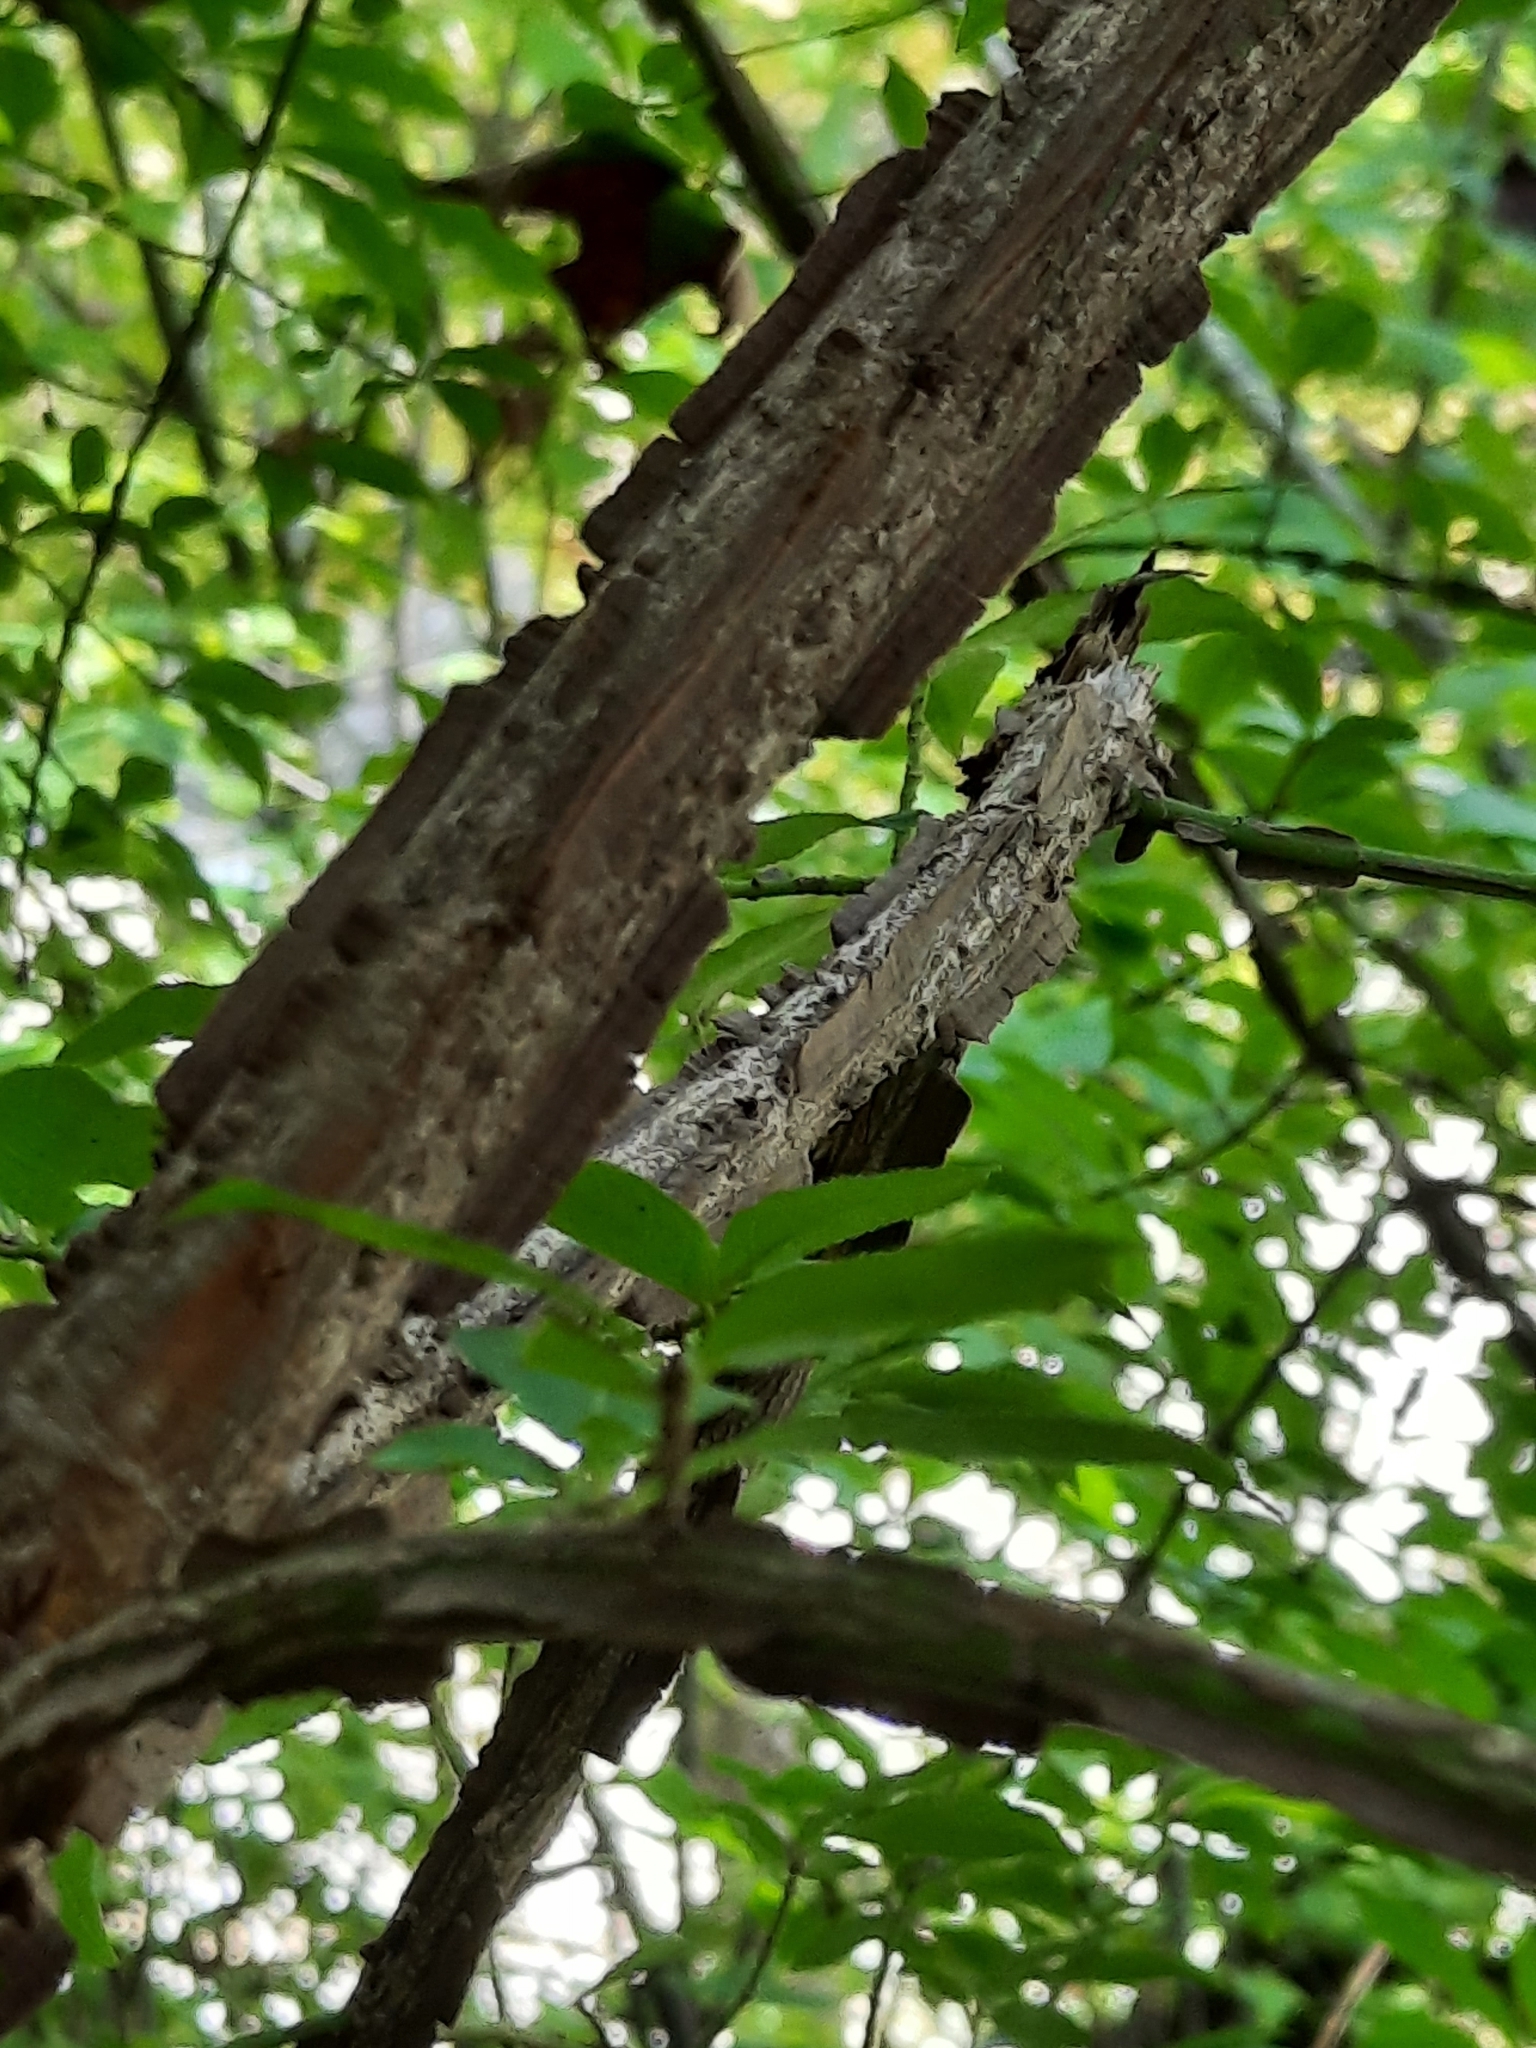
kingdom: Plantae
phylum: Tracheophyta
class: Magnoliopsida
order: Celastrales
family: Celastraceae
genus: Euonymus
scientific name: Euonymus alatus
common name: Winged euonymus
